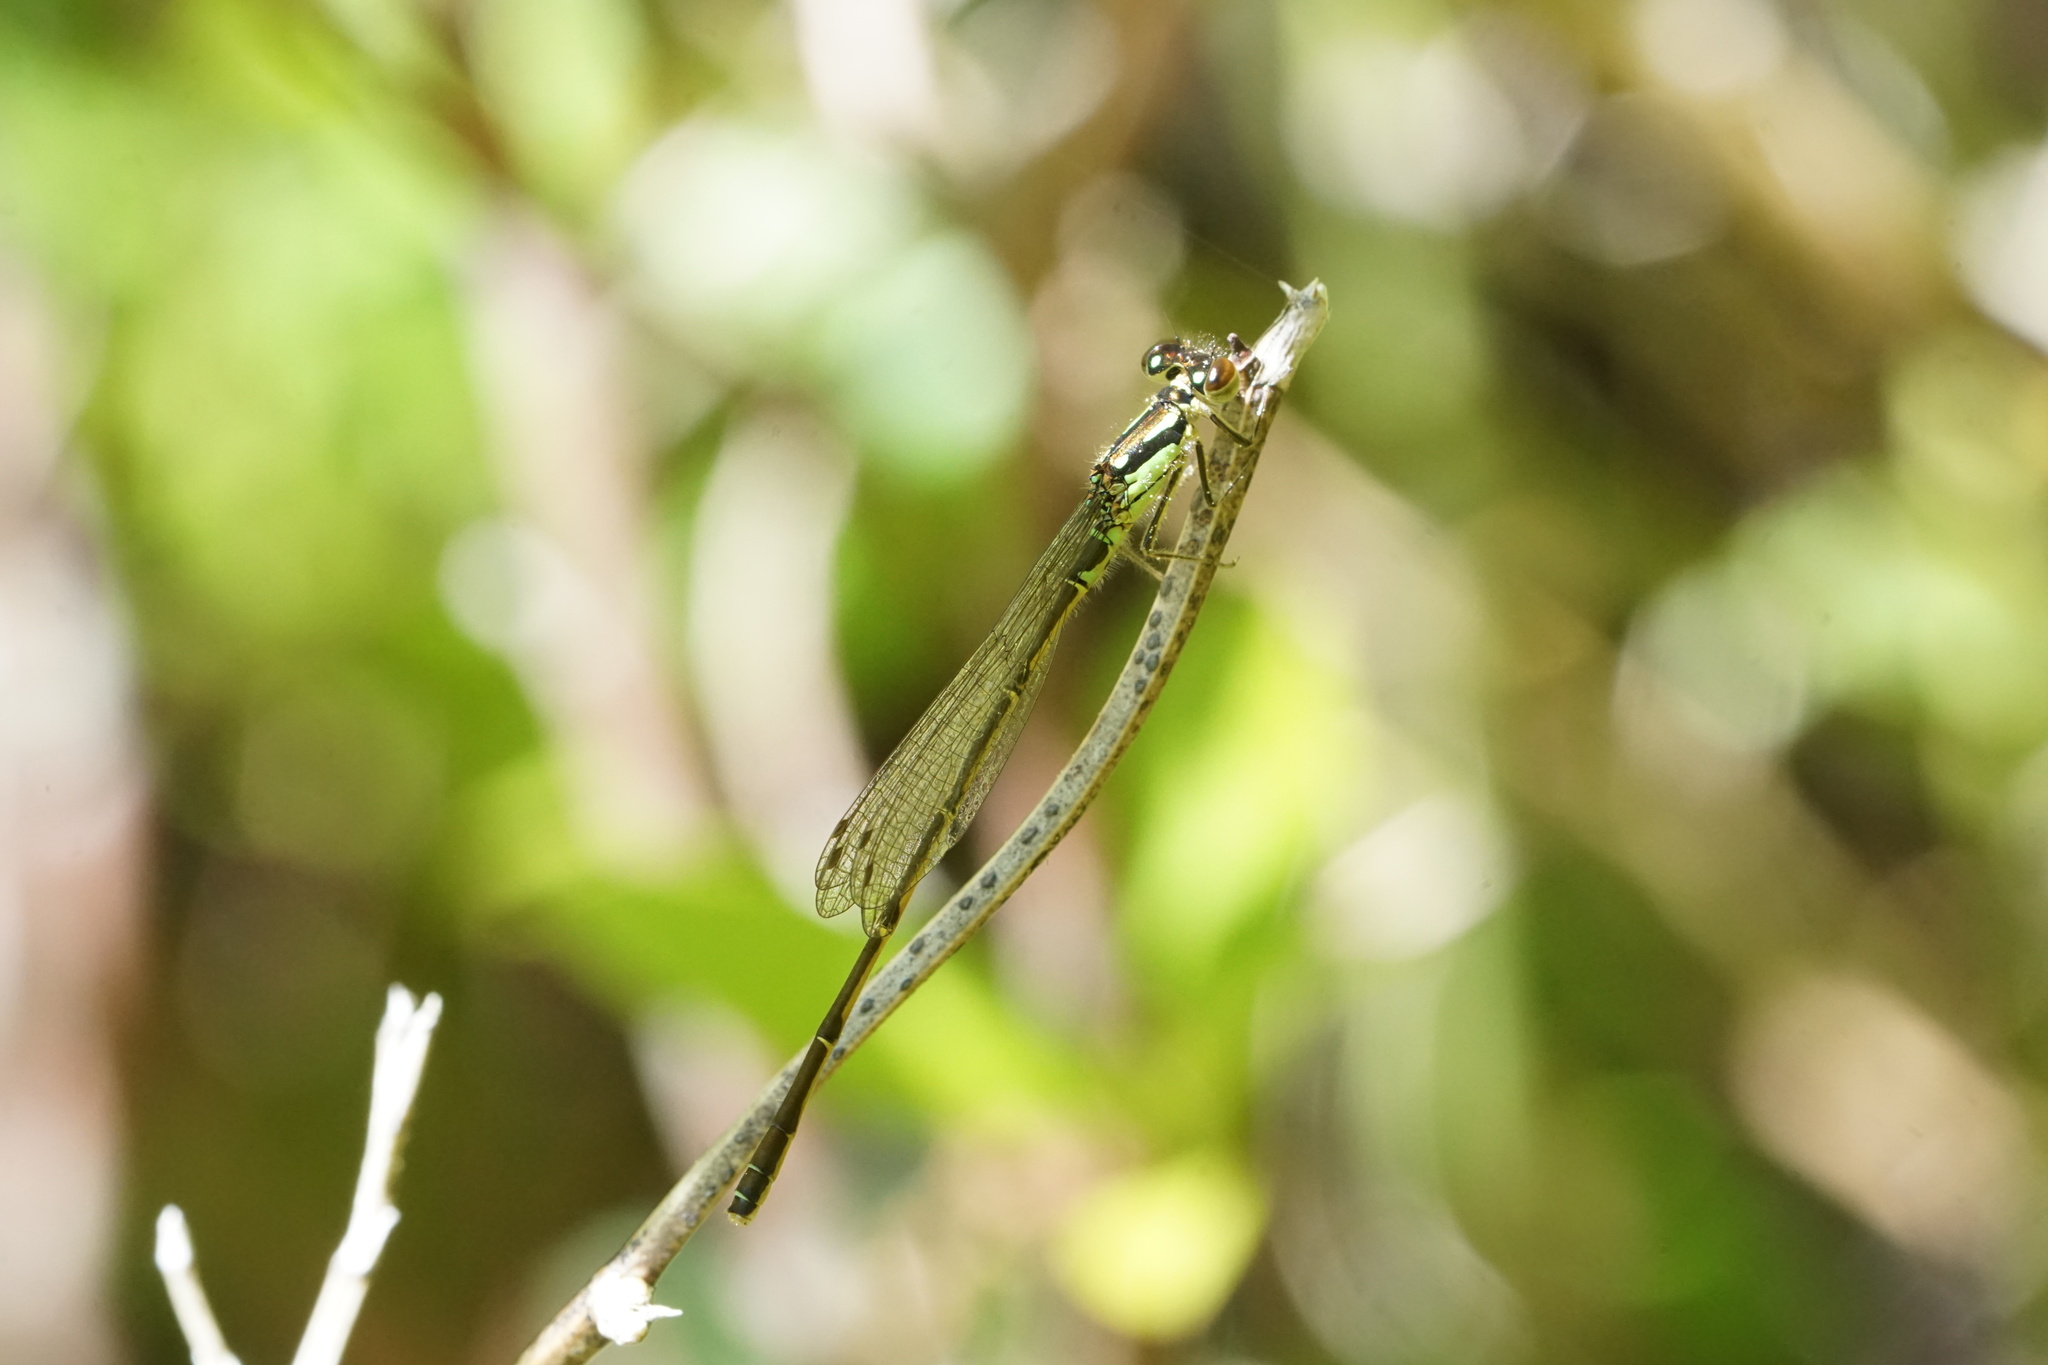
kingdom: Animalia
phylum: Arthropoda
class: Insecta
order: Odonata
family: Coenagrionidae
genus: Ischnura
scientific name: Ischnura posita
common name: Fragile forktail
